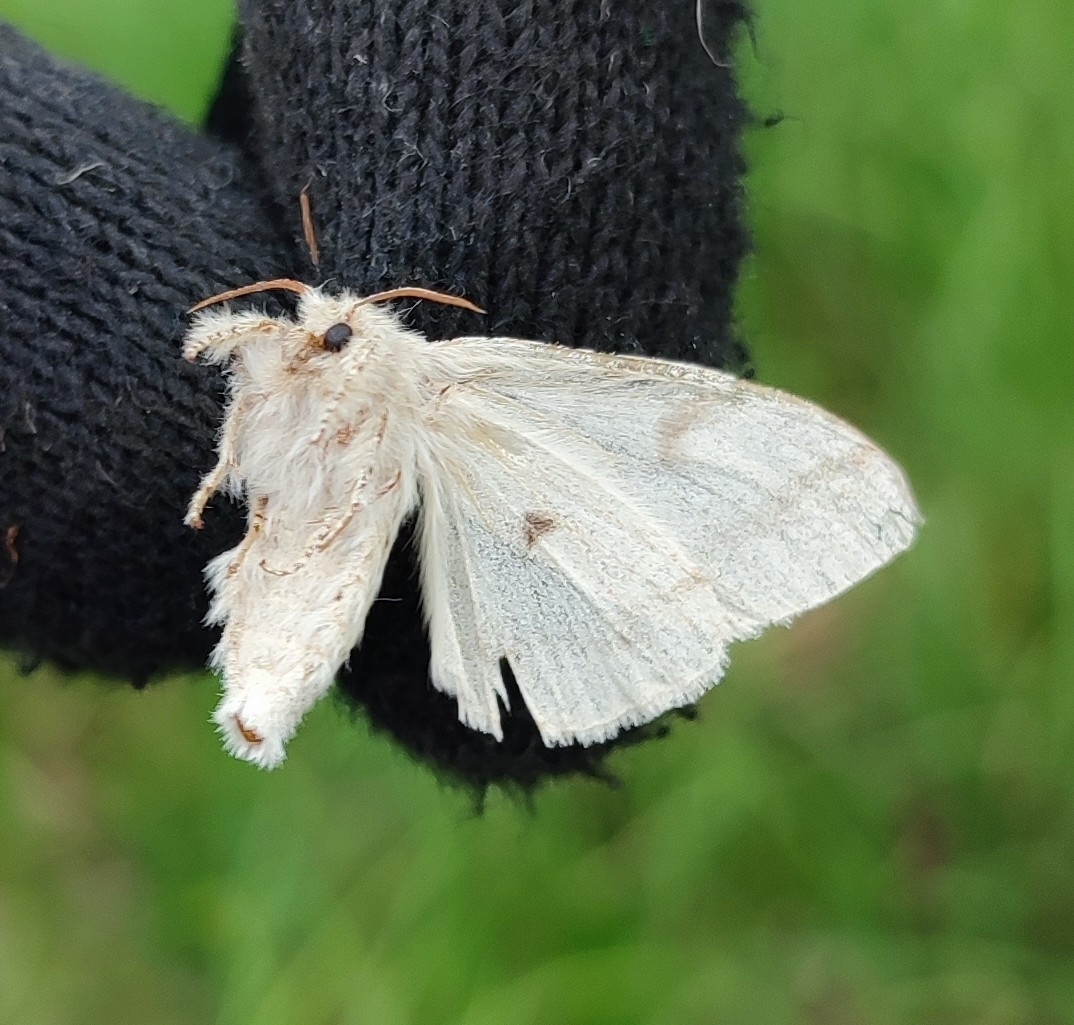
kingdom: Animalia
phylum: Arthropoda
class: Insecta
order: Lepidoptera
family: Erebidae
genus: Calliteara
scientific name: Calliteara pudibunda
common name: Pale tussock
